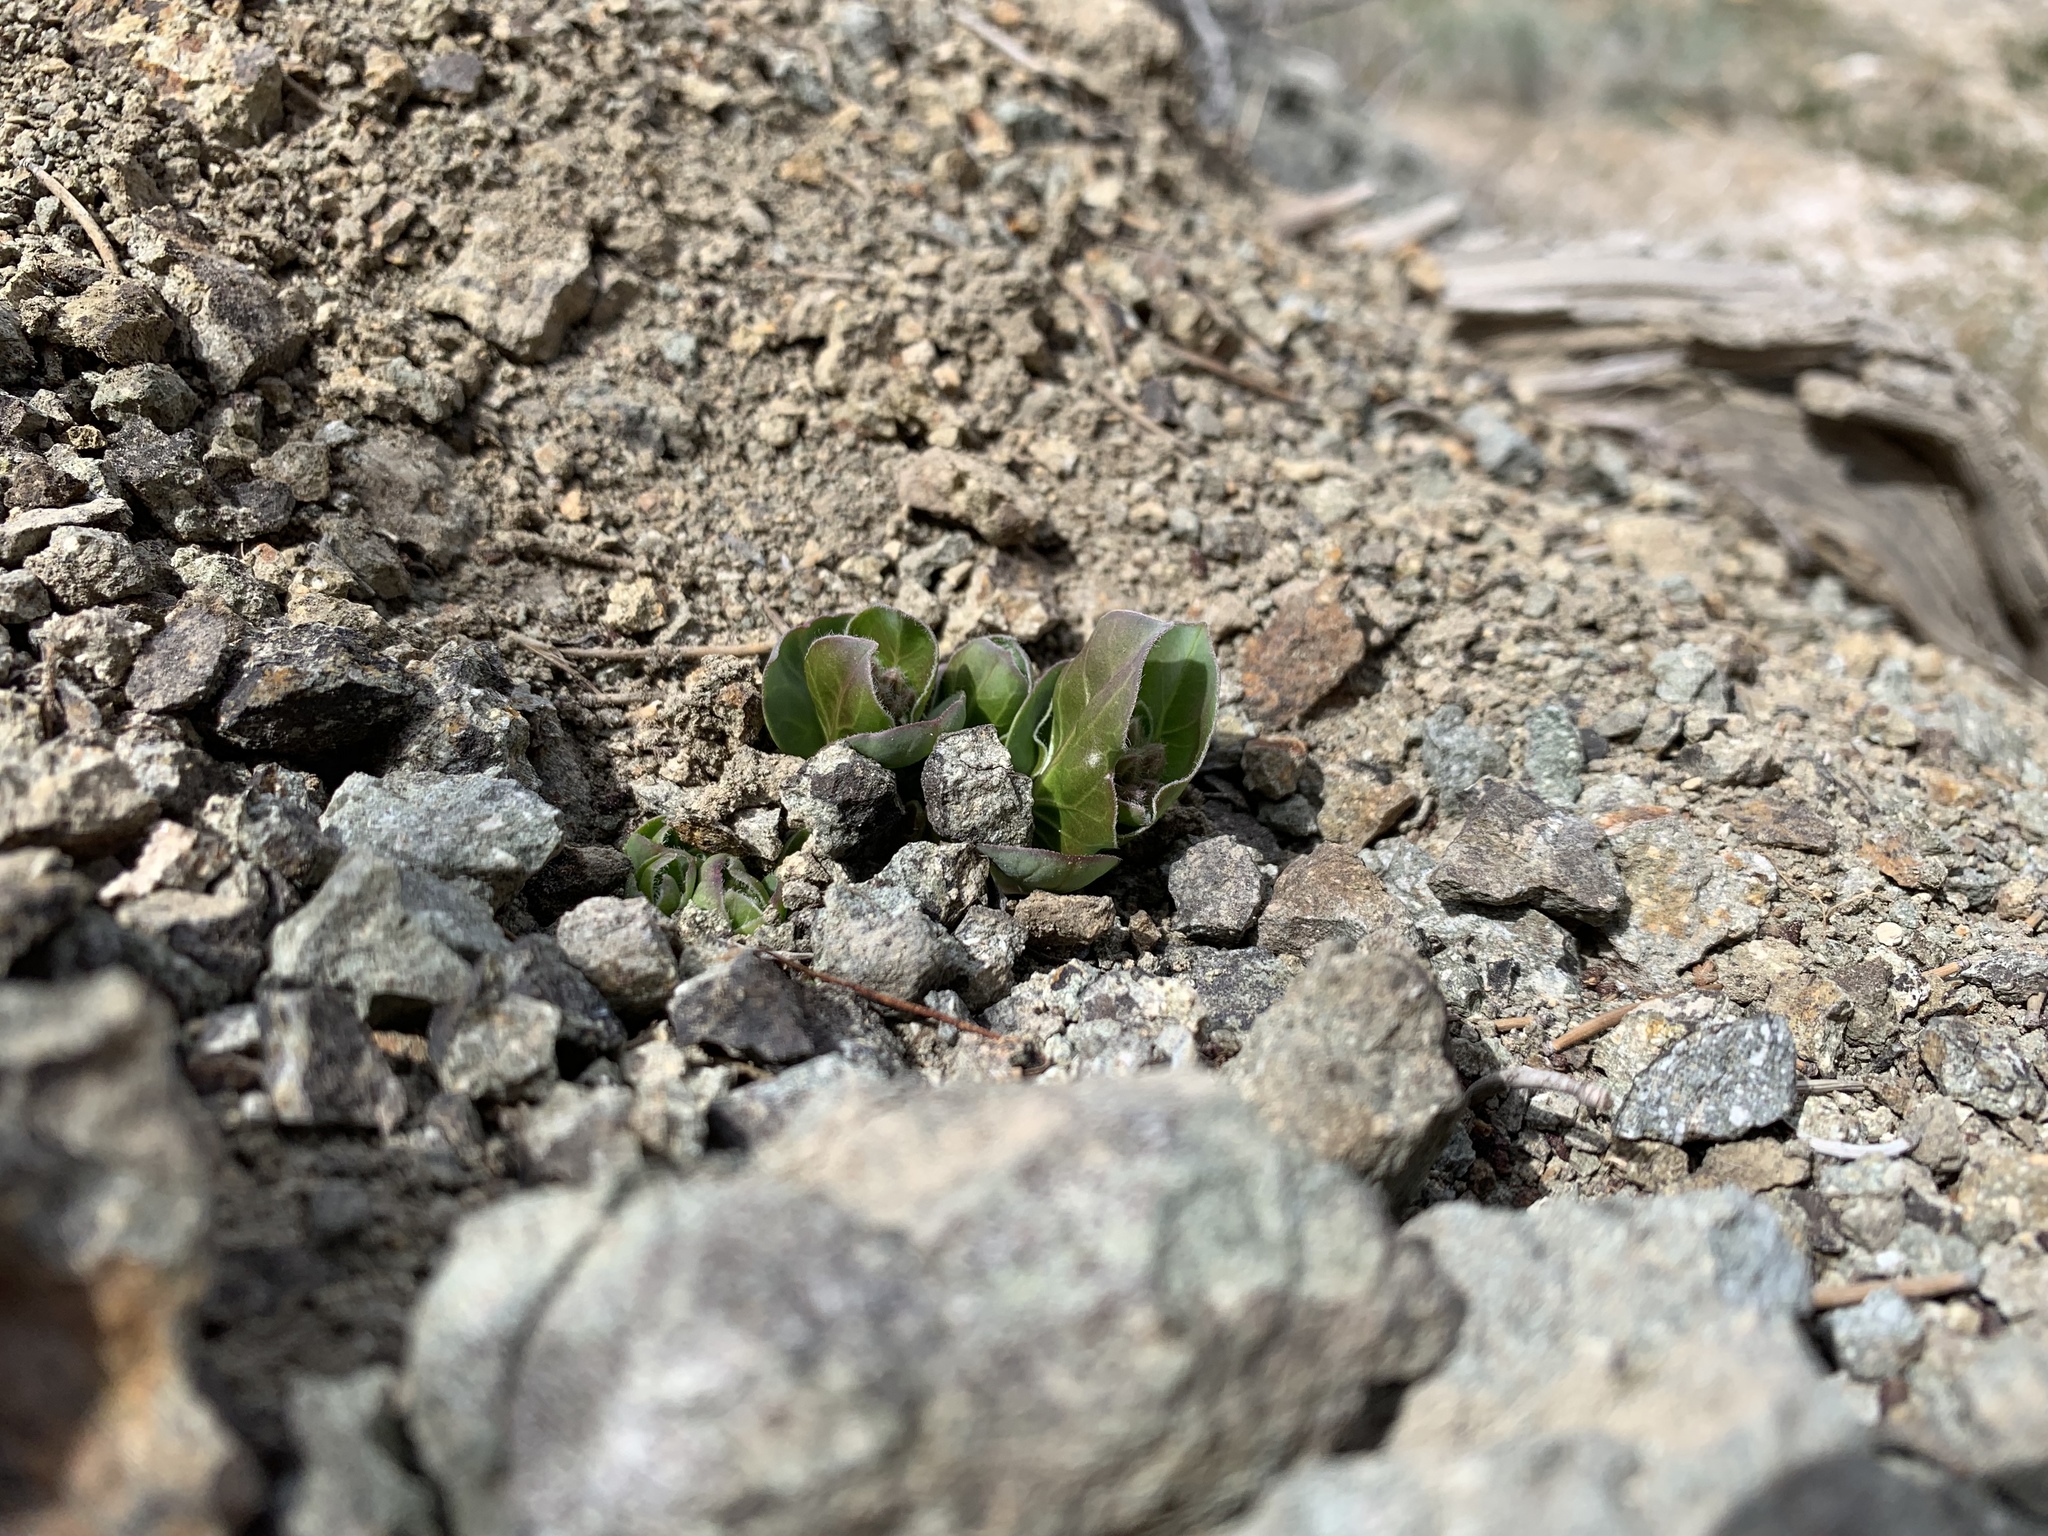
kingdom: Plantae
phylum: Tracheophyta
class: Magnoliopsida
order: Gentianales
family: Apocynaceae
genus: Asclepias
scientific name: Asclepias cryptoceras
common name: Humboldt mountains milkweed
